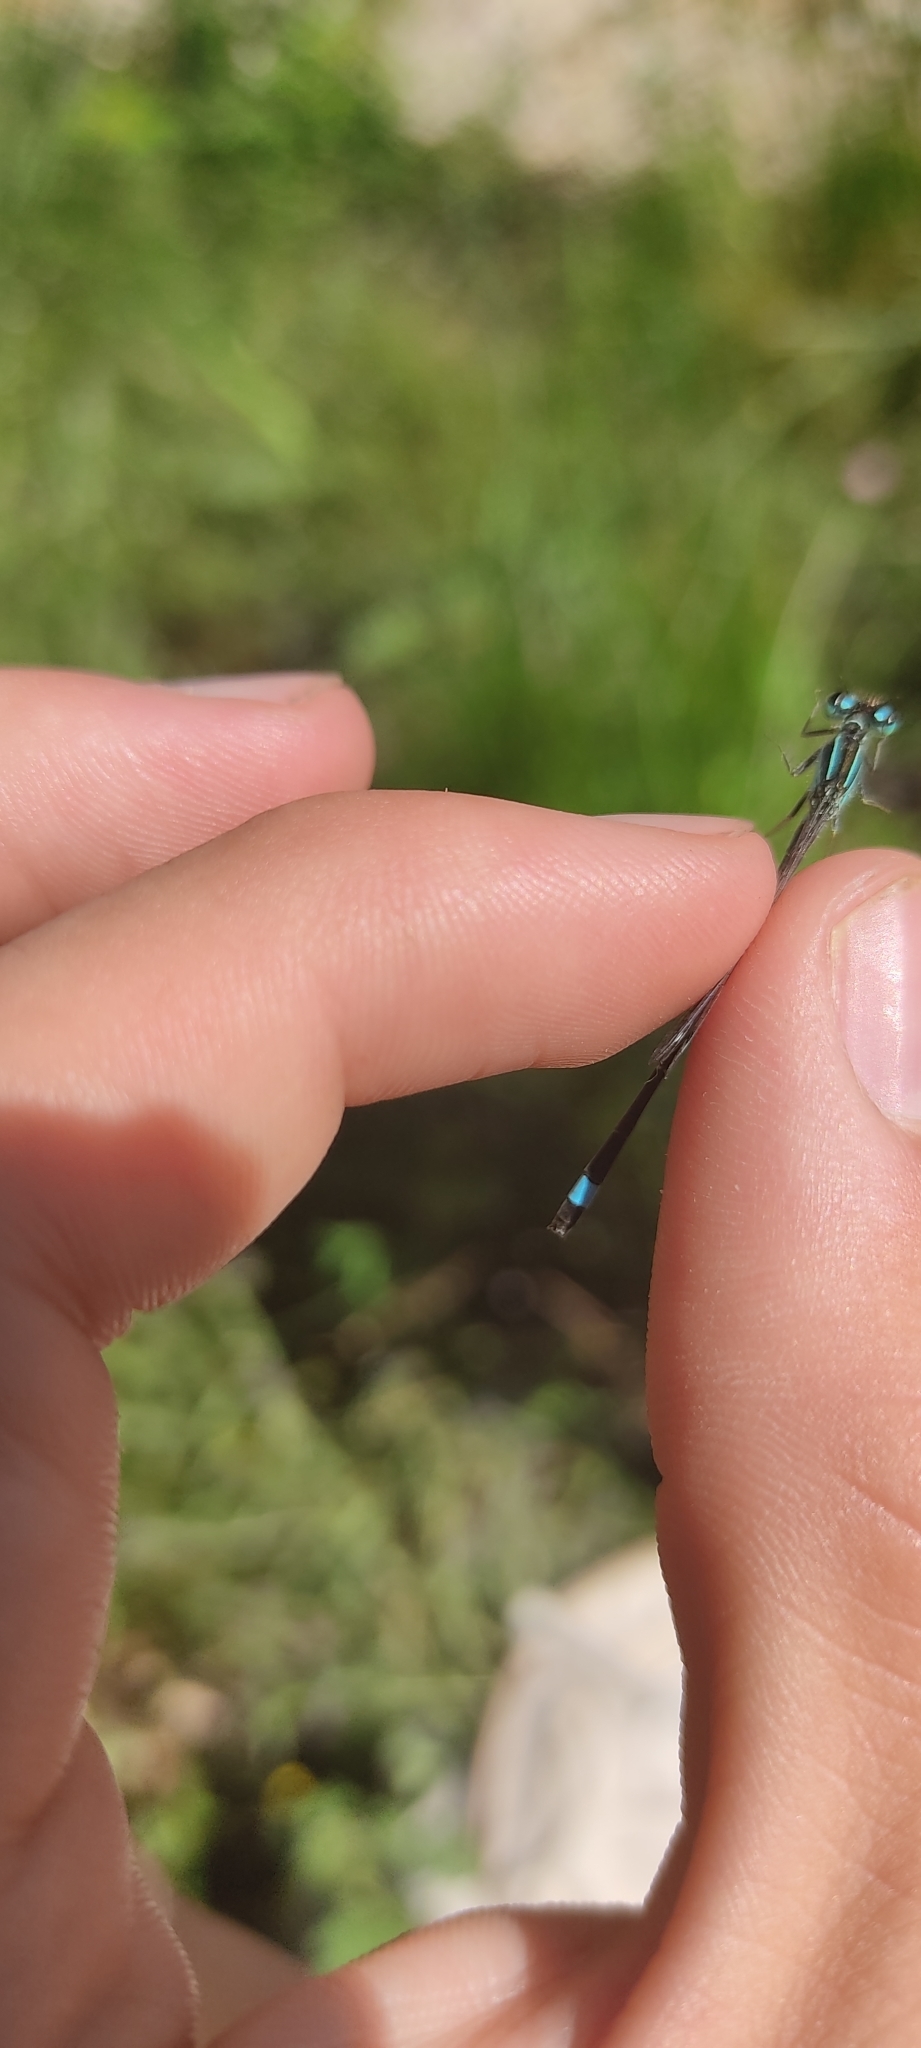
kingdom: Animalia
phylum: Arthropoda
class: Insecta
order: Odonata
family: Coenagrionidae
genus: Ischnura
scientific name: Ischnura elegans
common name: Blue-tailed damselfly
